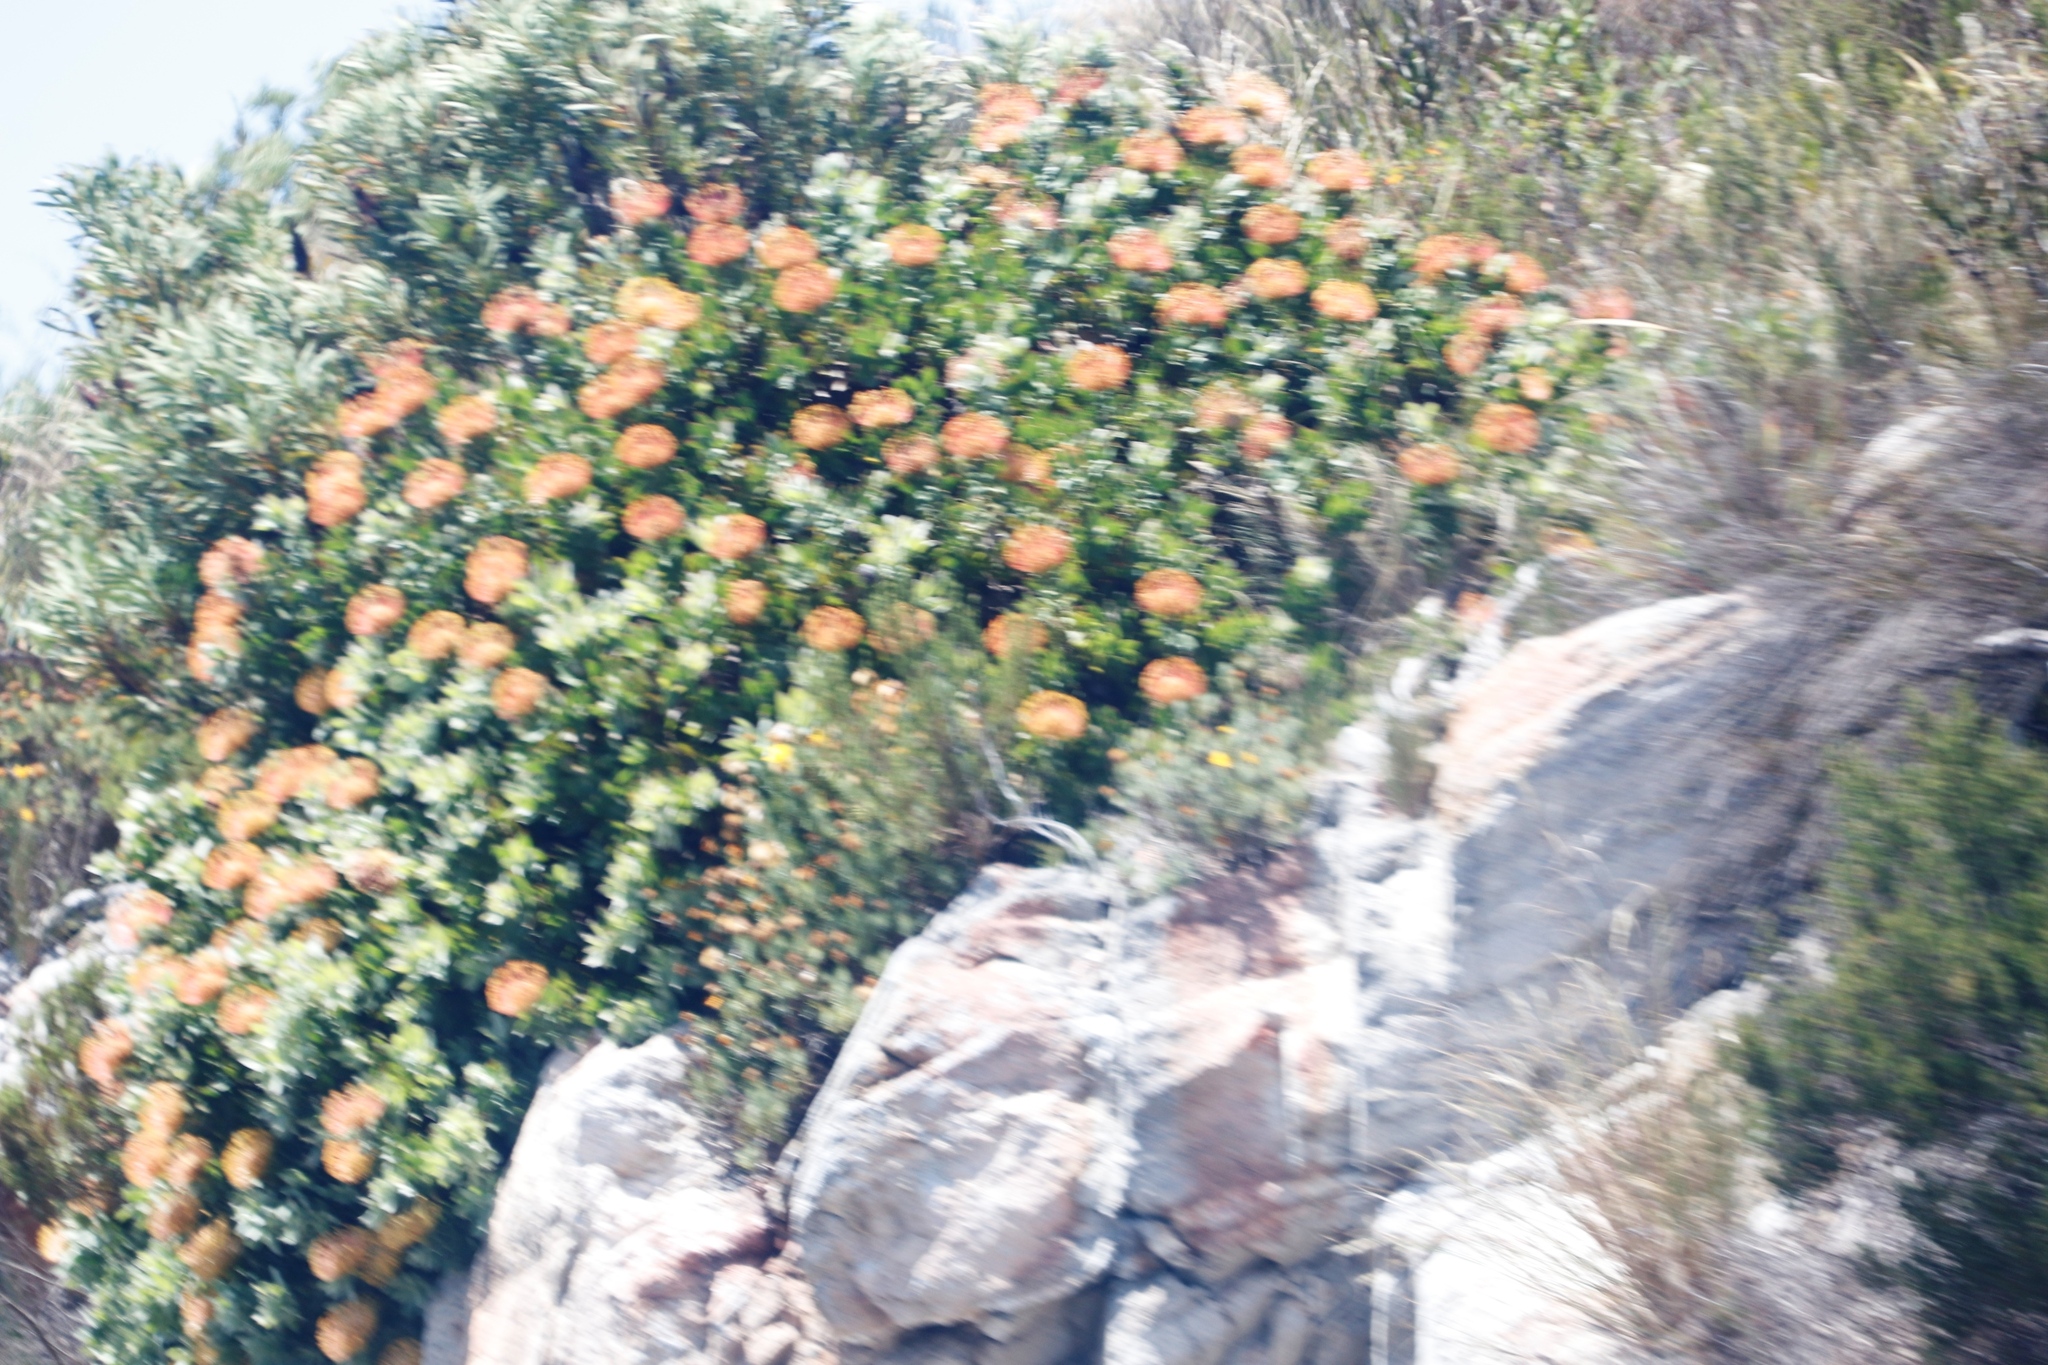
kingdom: Plantae
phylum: Tracheophyta
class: Magnoliopsida
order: Proteales
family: Proteaceae
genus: Leucospermum
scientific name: Leucospermum cordifolium
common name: Red pincushion-protea
